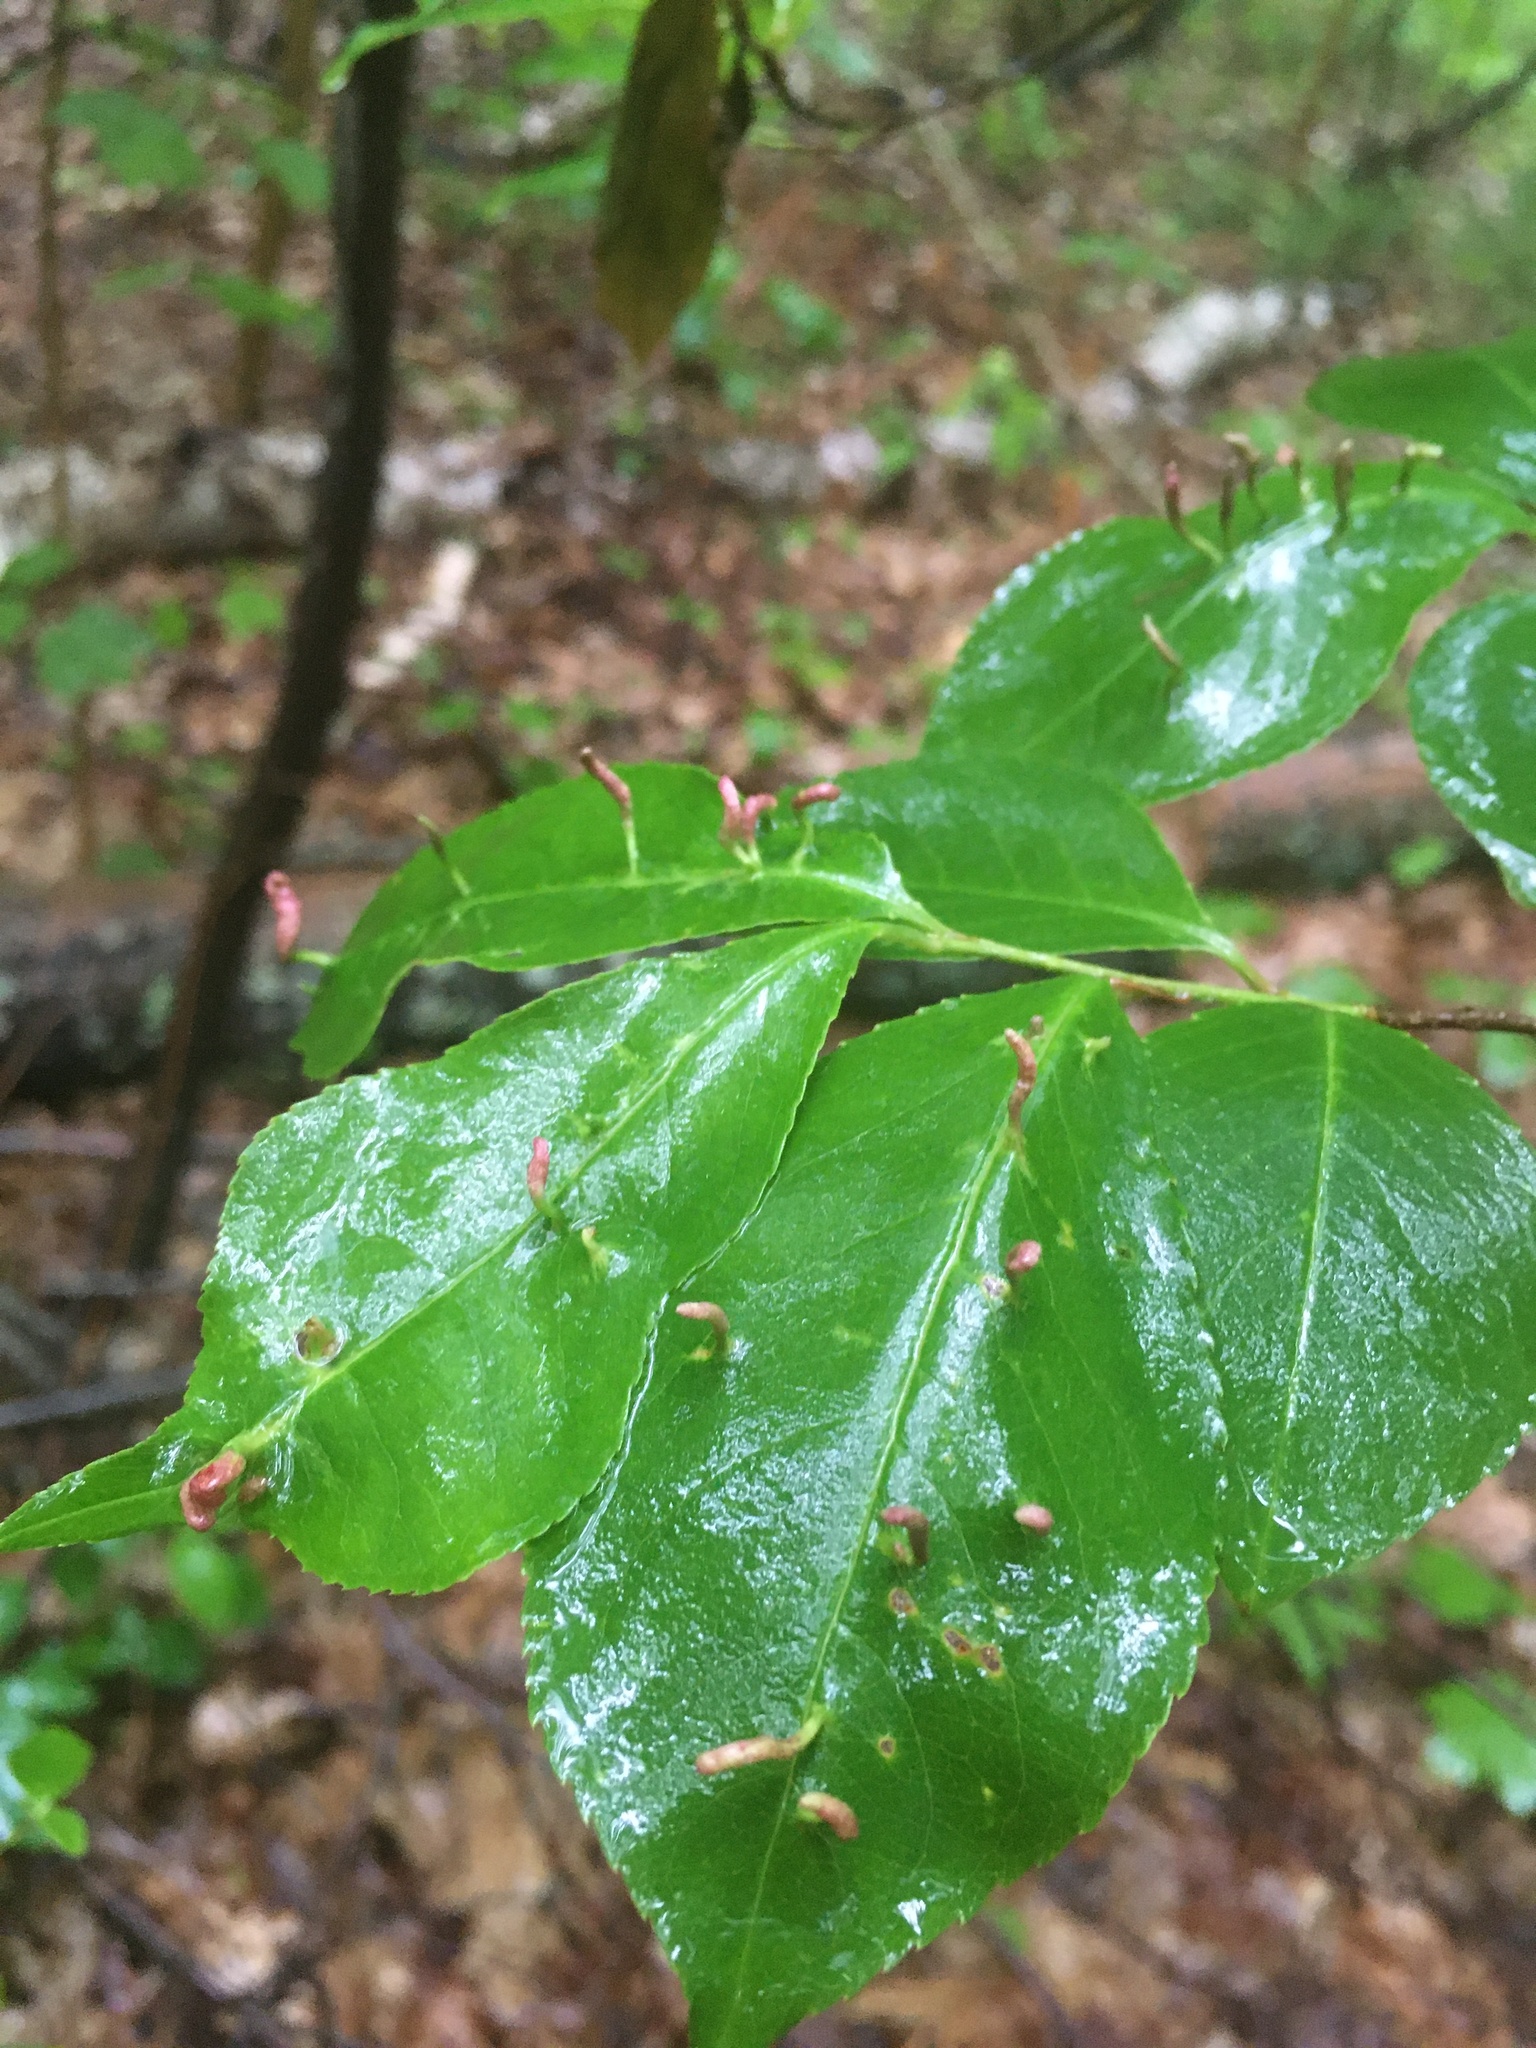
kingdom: Animalia
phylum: Arthropoda
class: Arachnida
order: Trombidiformes
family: Eriophyidae
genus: Eriophyes
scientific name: Eriophyes
